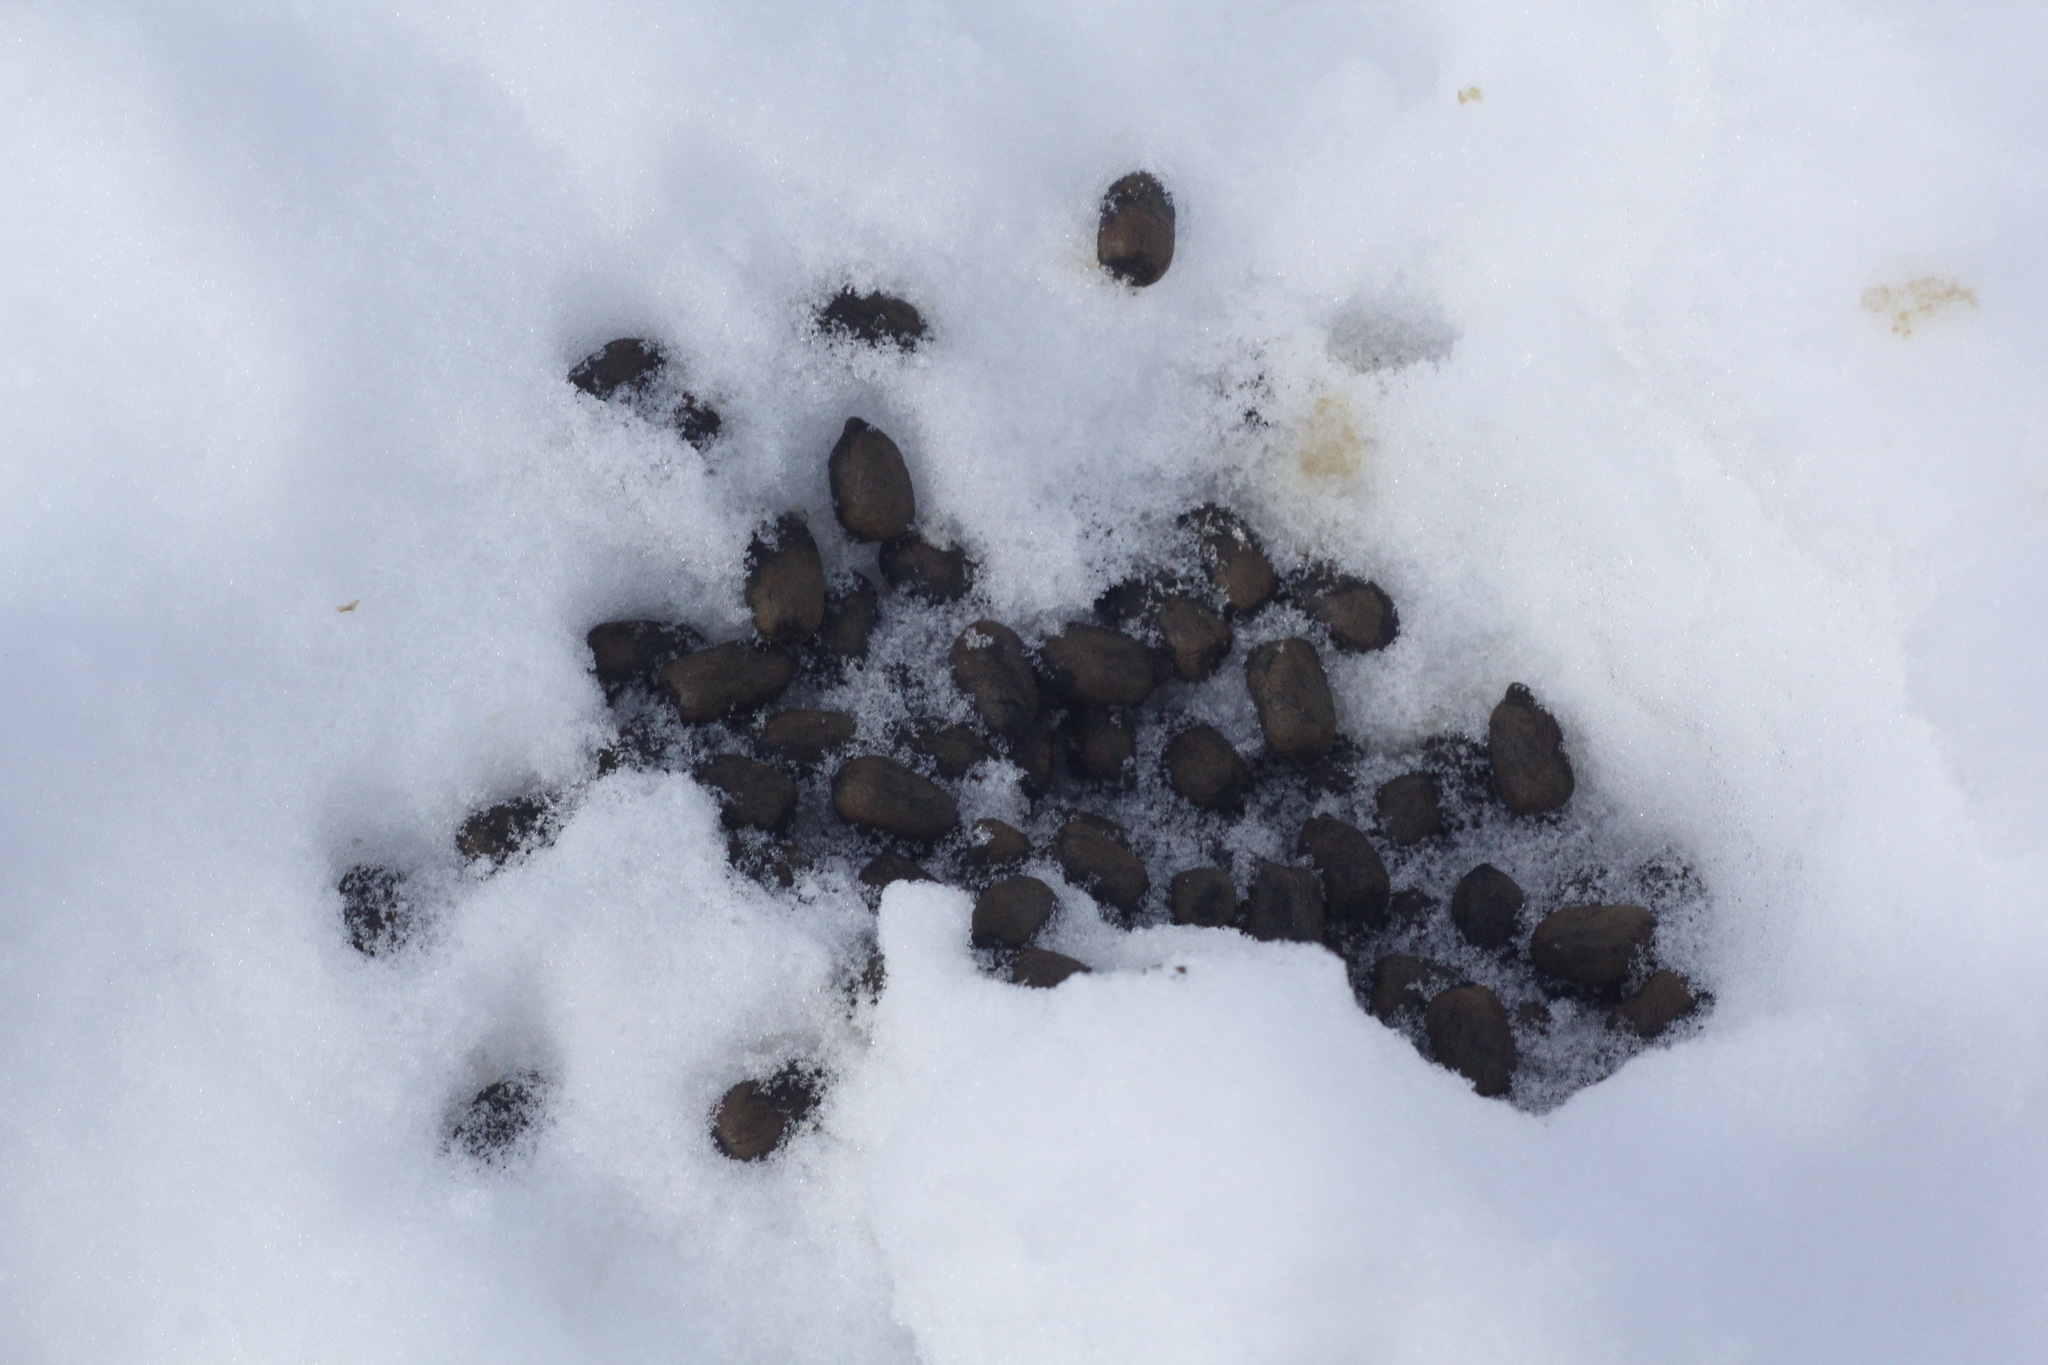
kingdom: Animalia
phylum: Chordata
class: Mammalia
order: Artiodactyla
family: Cervidae
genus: Capreolus
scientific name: Capreolus pygargus
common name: Siberian roe
